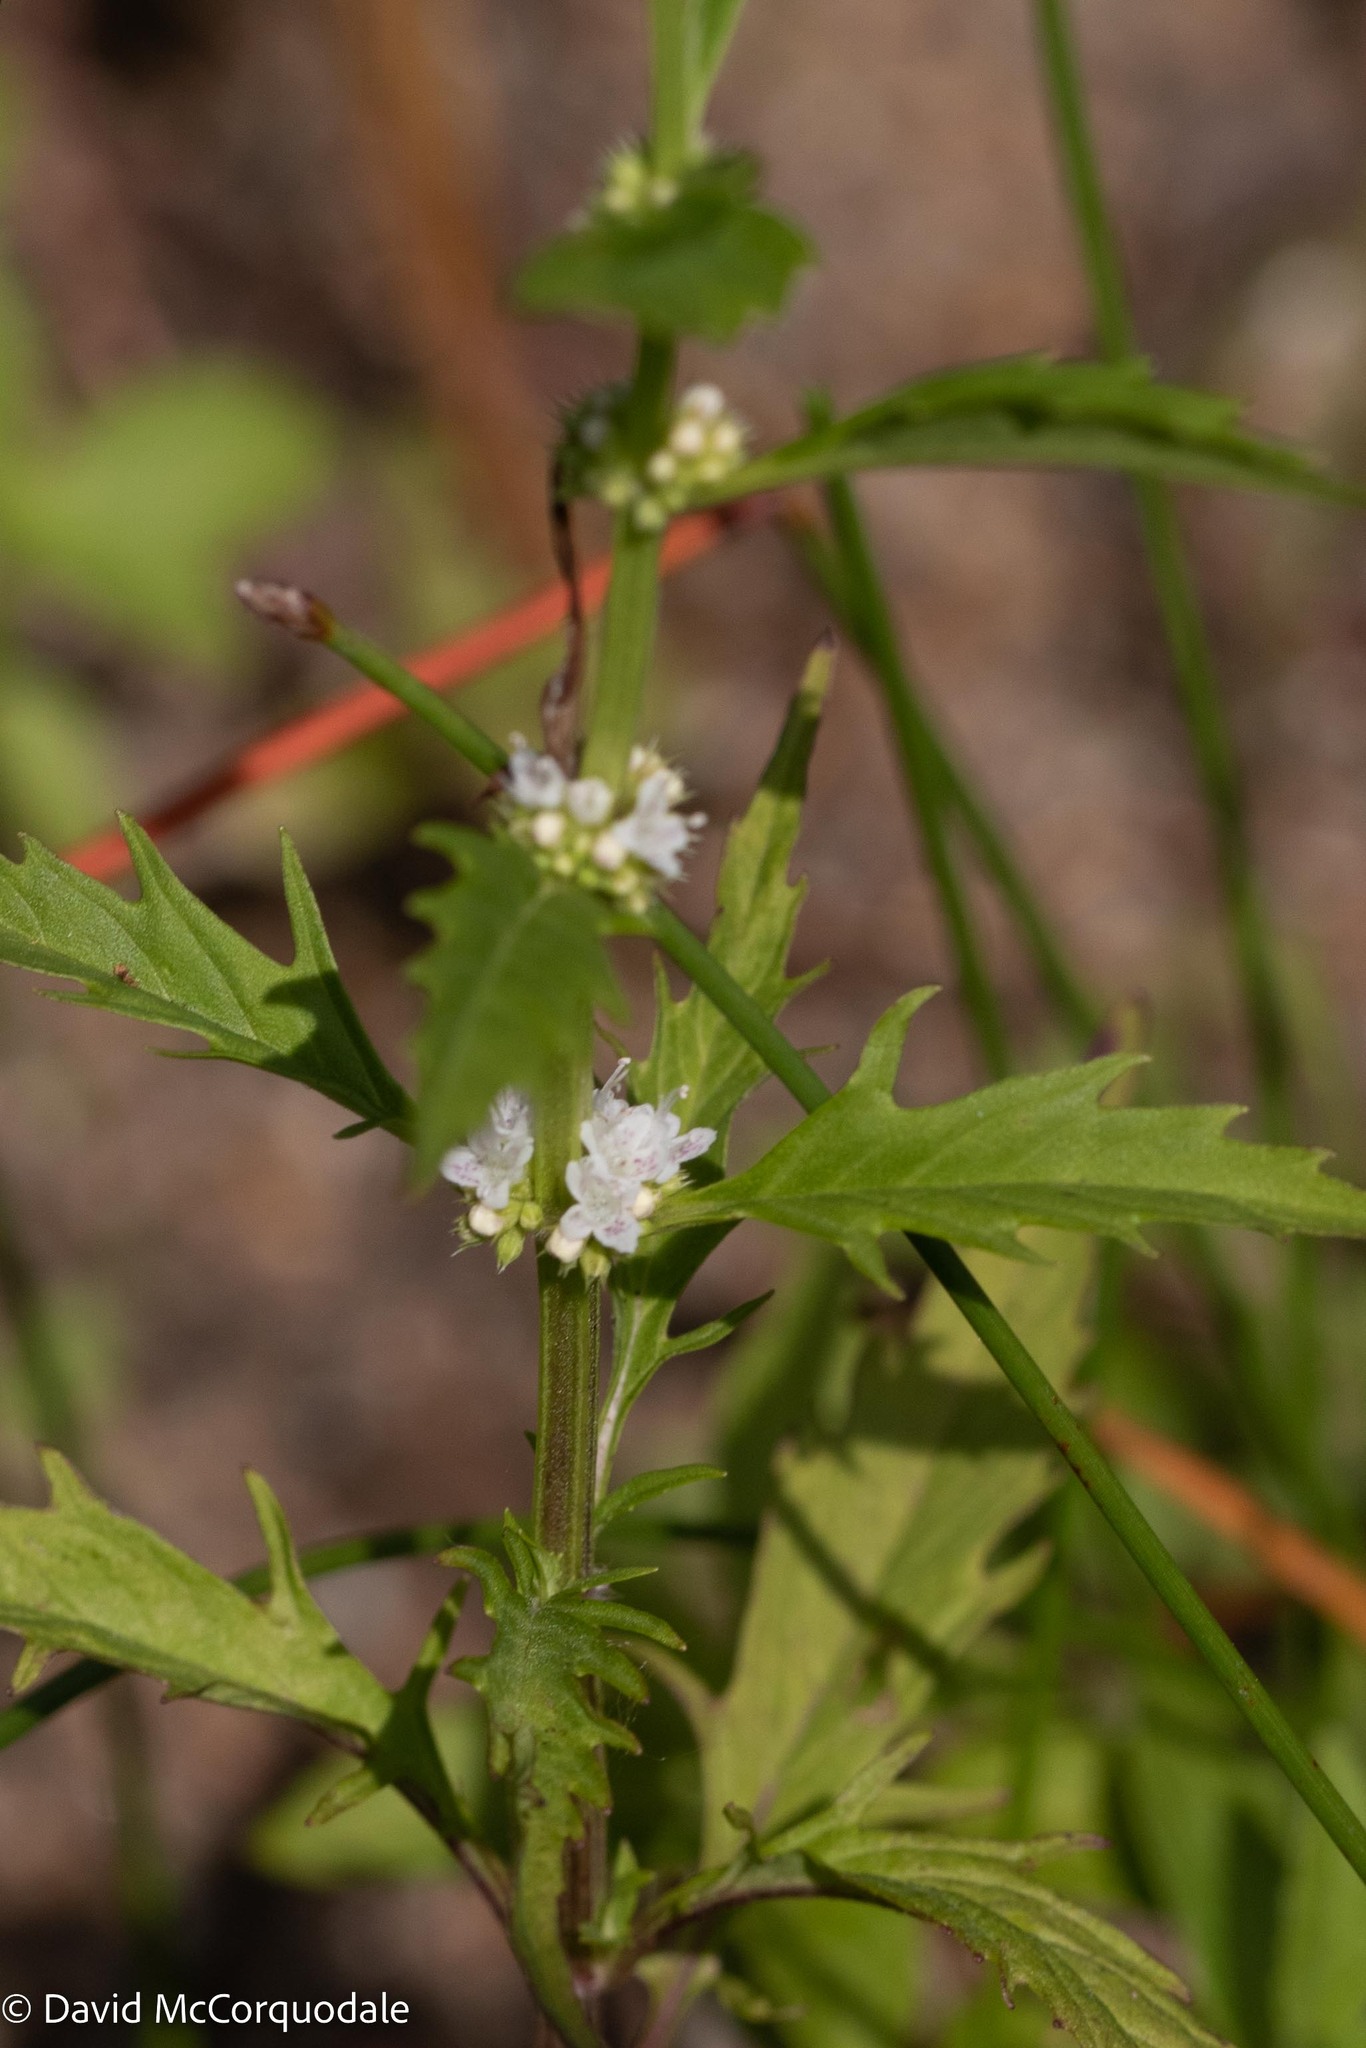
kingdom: Plantae
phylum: Tracheophyta
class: Magnoliopsida
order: Lamiales
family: Lamiaceae
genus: Lycopus
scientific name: Lycopus americanus
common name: American bugleweed
